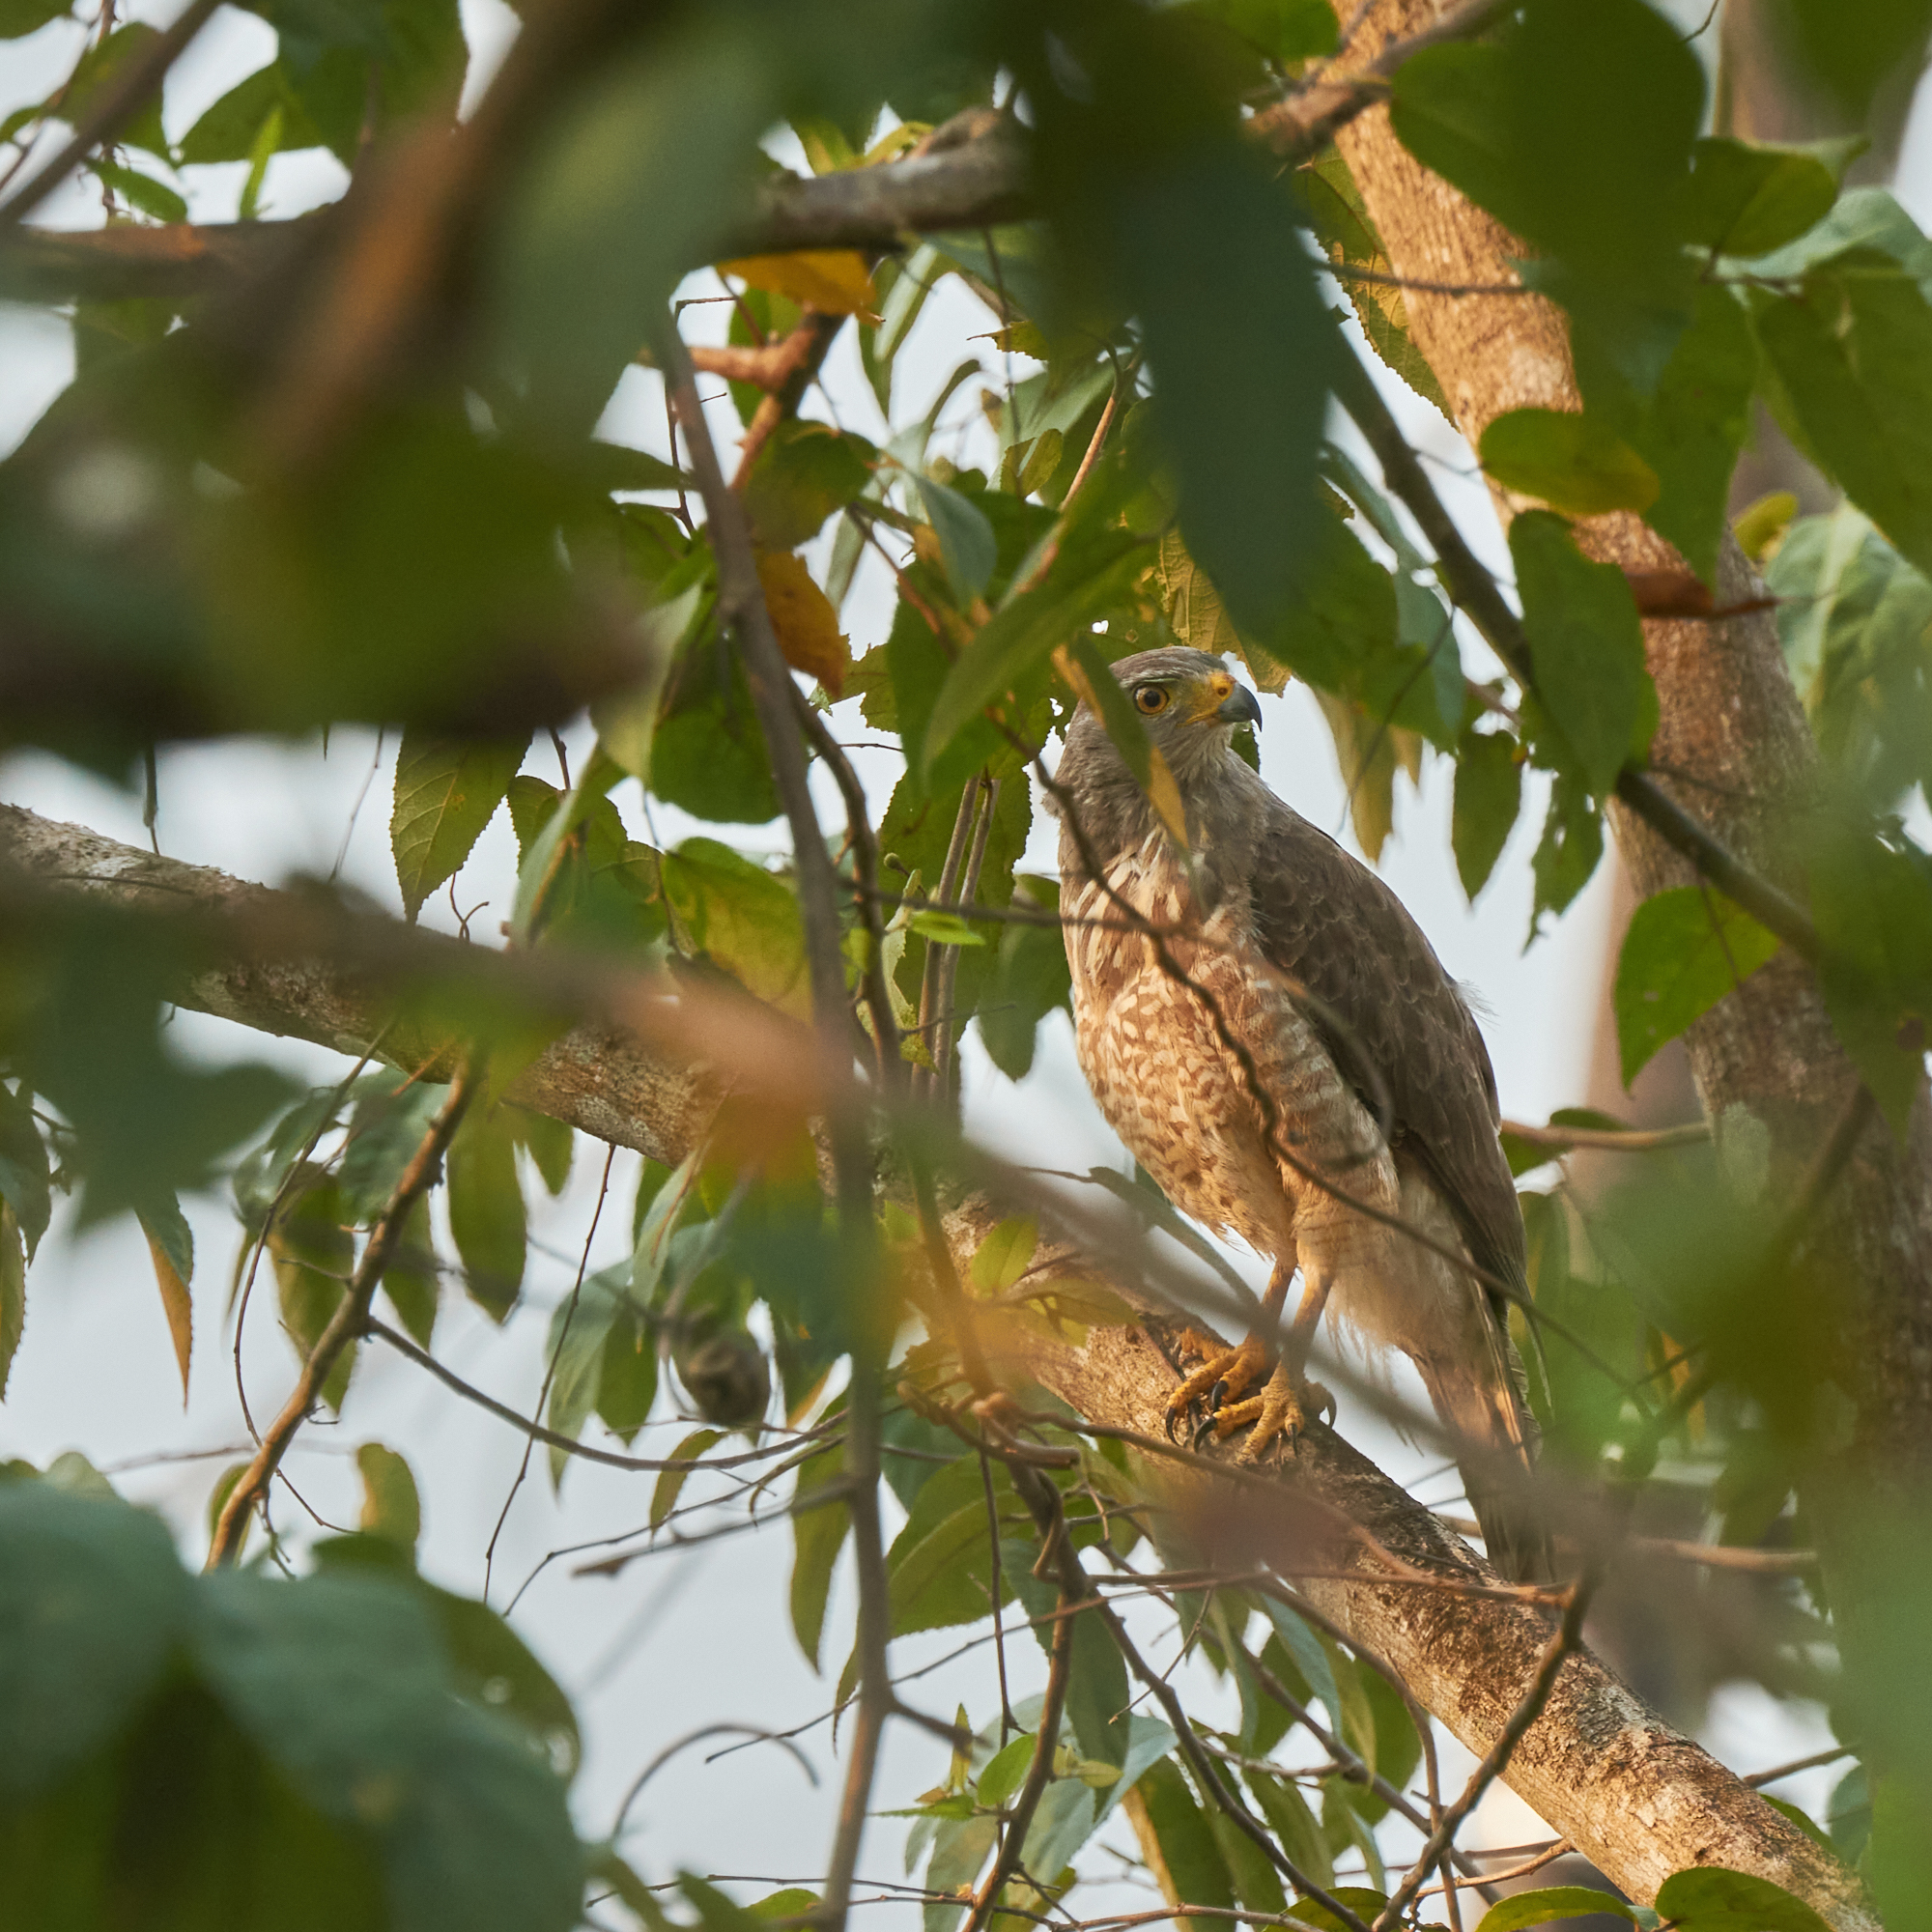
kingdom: Animalia
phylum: Chordata
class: Aves
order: Accipitriformes
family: Accipitridae
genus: Rupornis
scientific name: Rupornis magnirostris
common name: Roadside hawk
